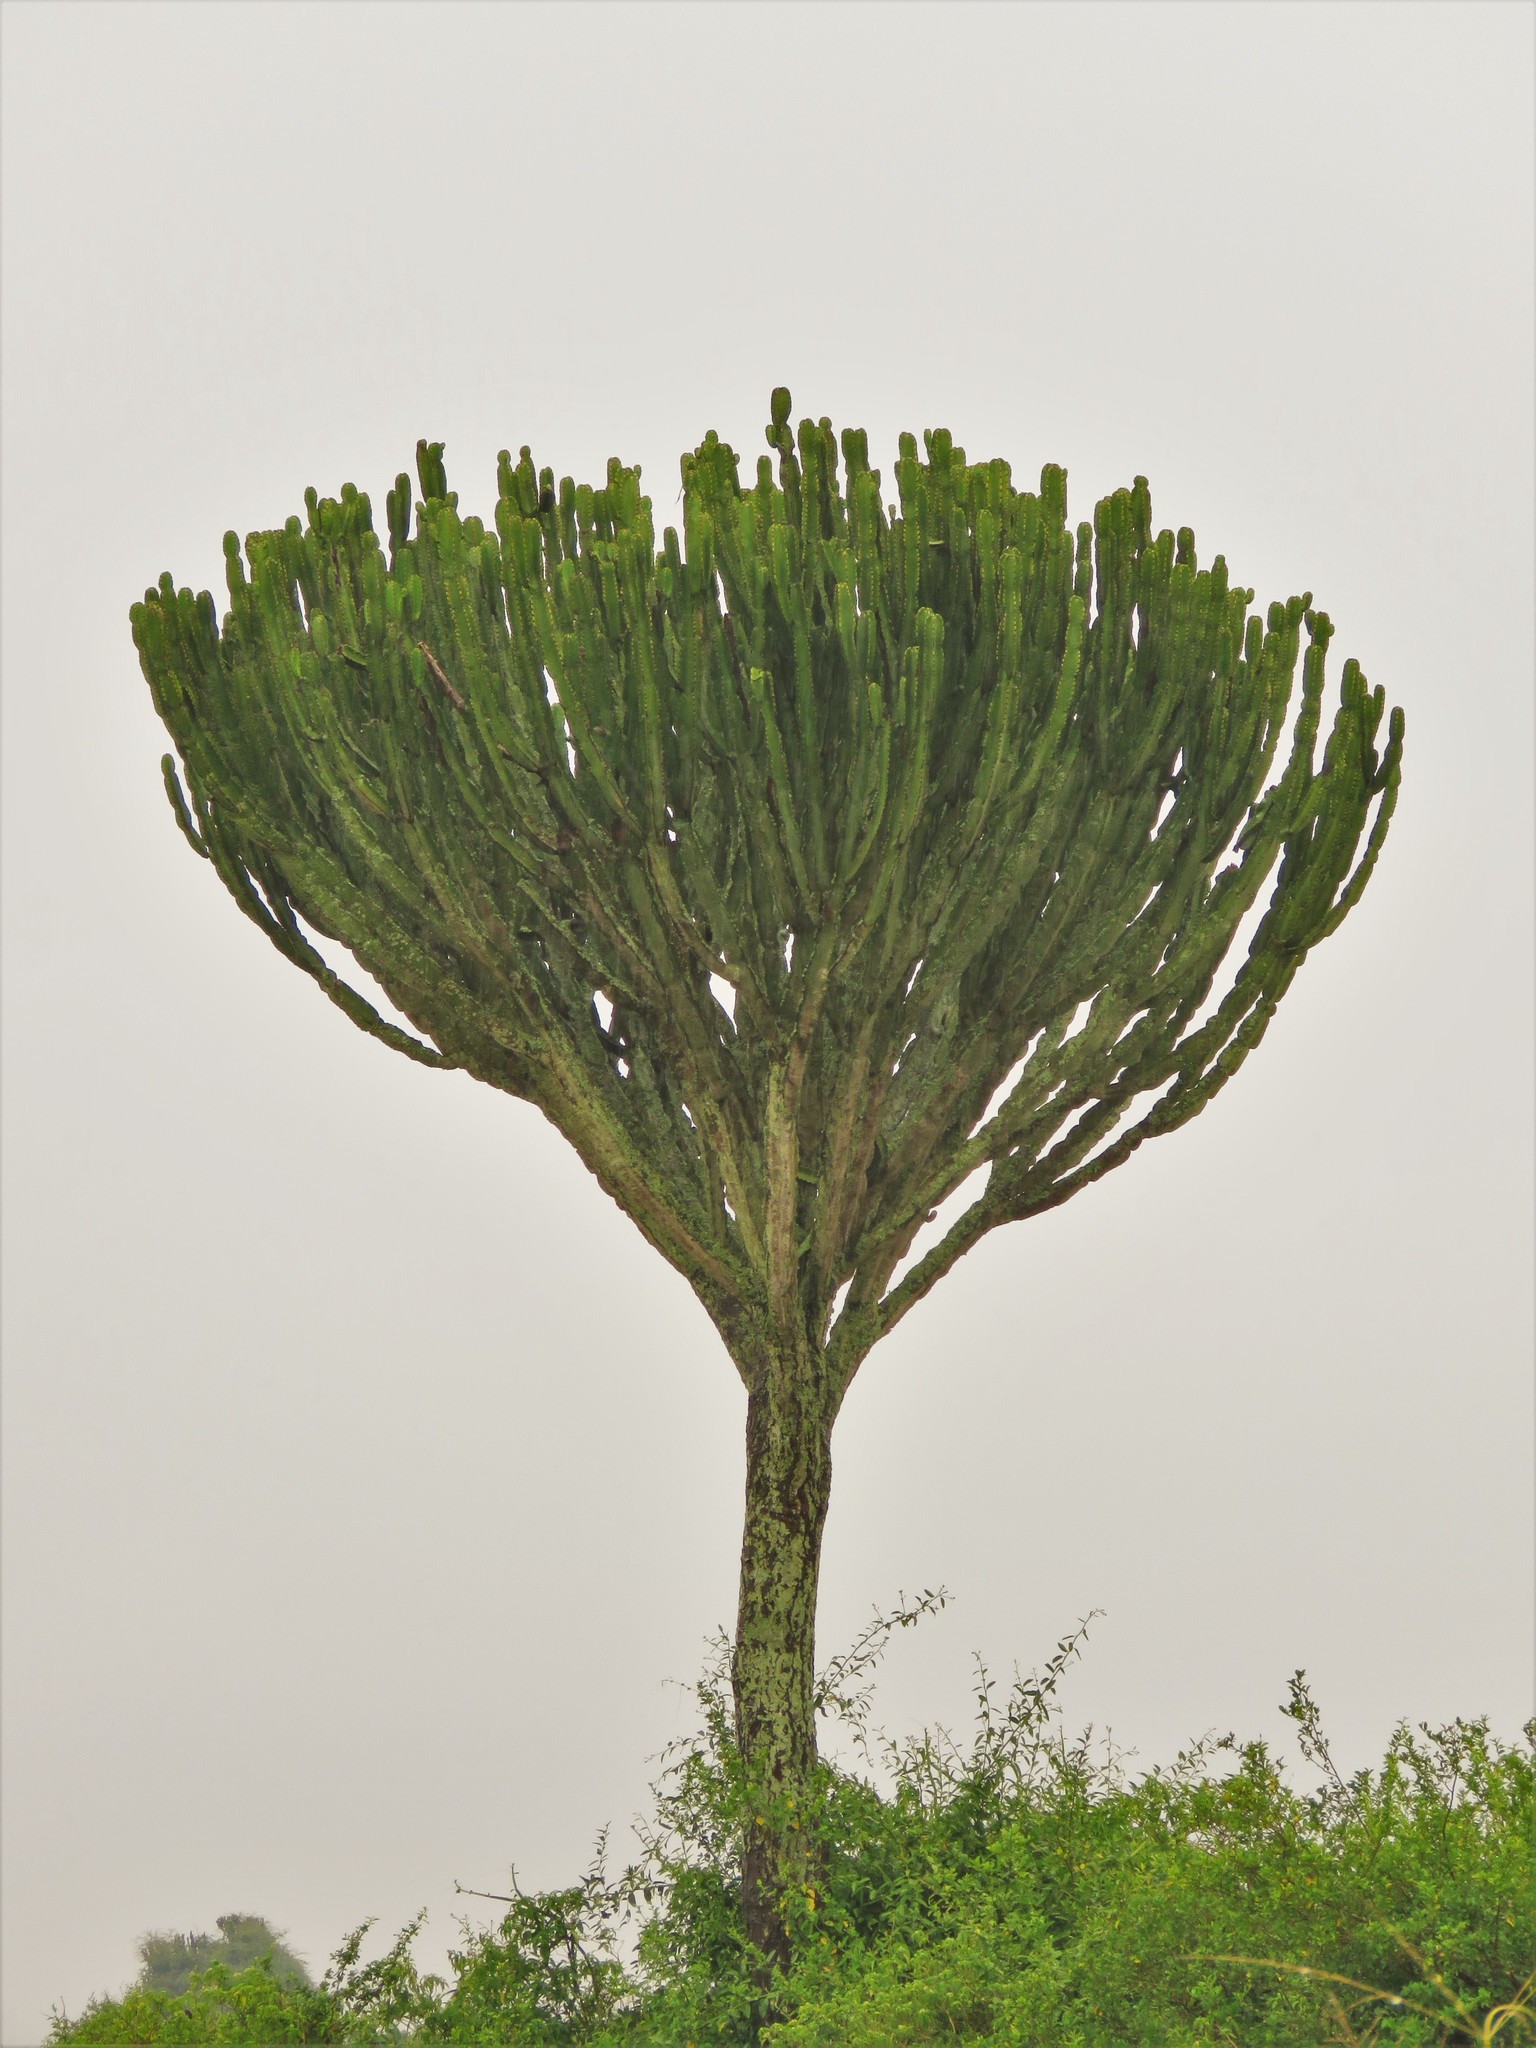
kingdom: Plantae
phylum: Tracheophyta
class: Magnoliopsida
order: Malpighiales
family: Euphorbiaceae
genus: Euphorbia
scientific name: Euphorbia ingens
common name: Cactus spurge
